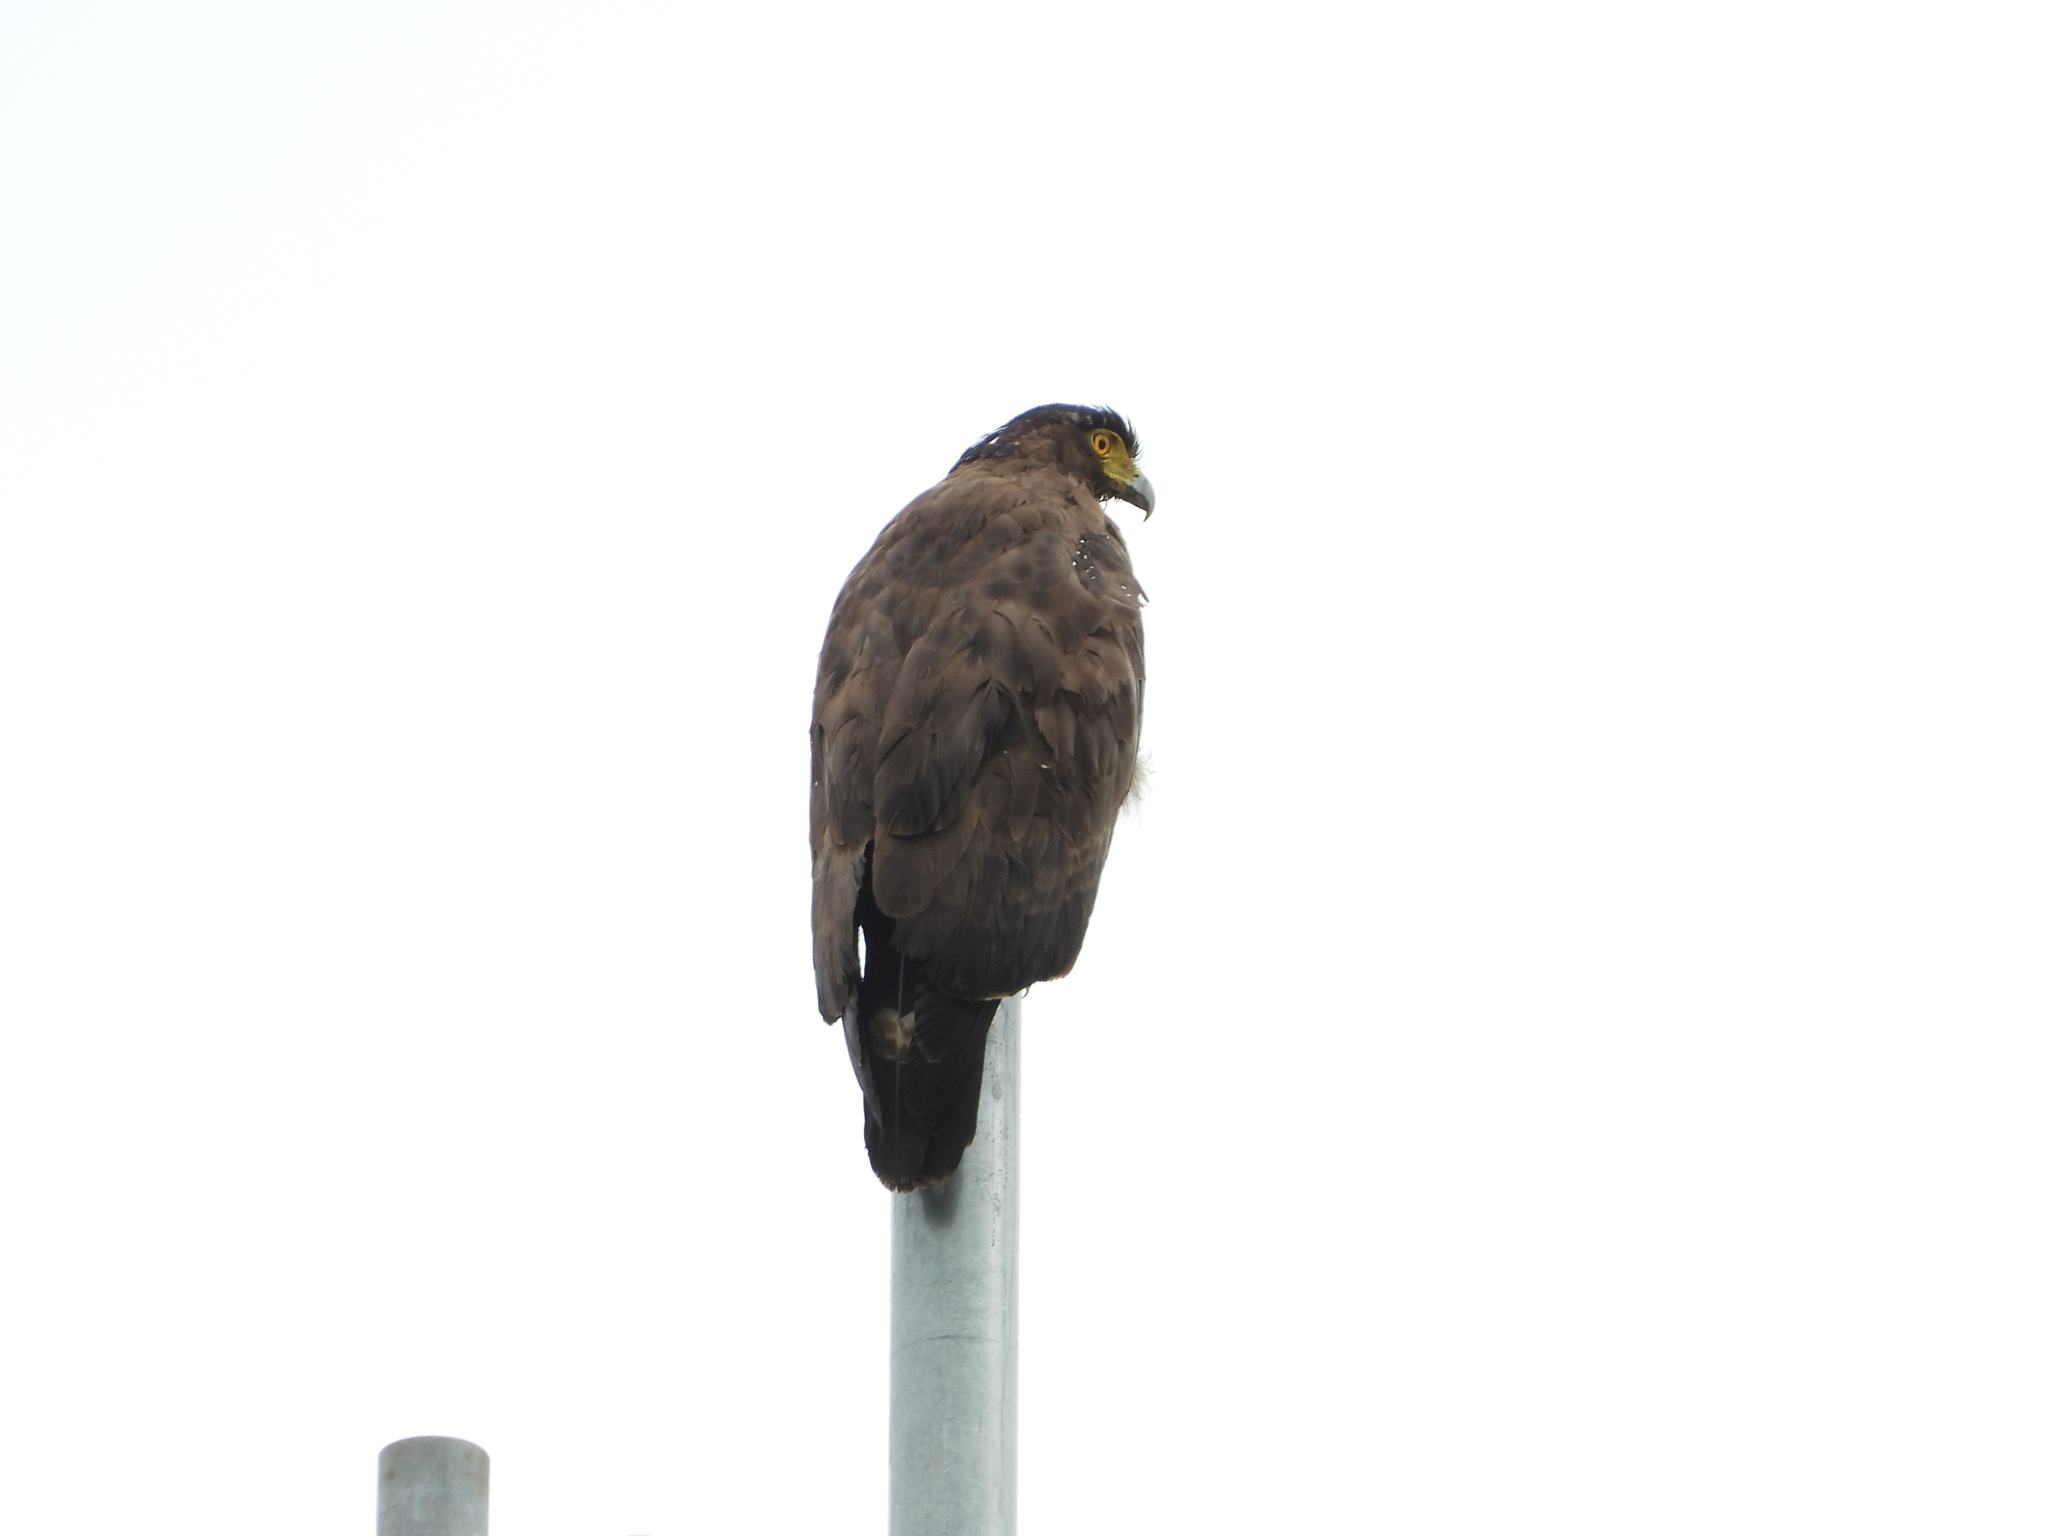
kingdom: Animalia
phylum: Chordata
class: Aves
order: Accipitriformes
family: Accipitridae
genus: Spilornis
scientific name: Spilornis cheela
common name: Crested serpent eagle
